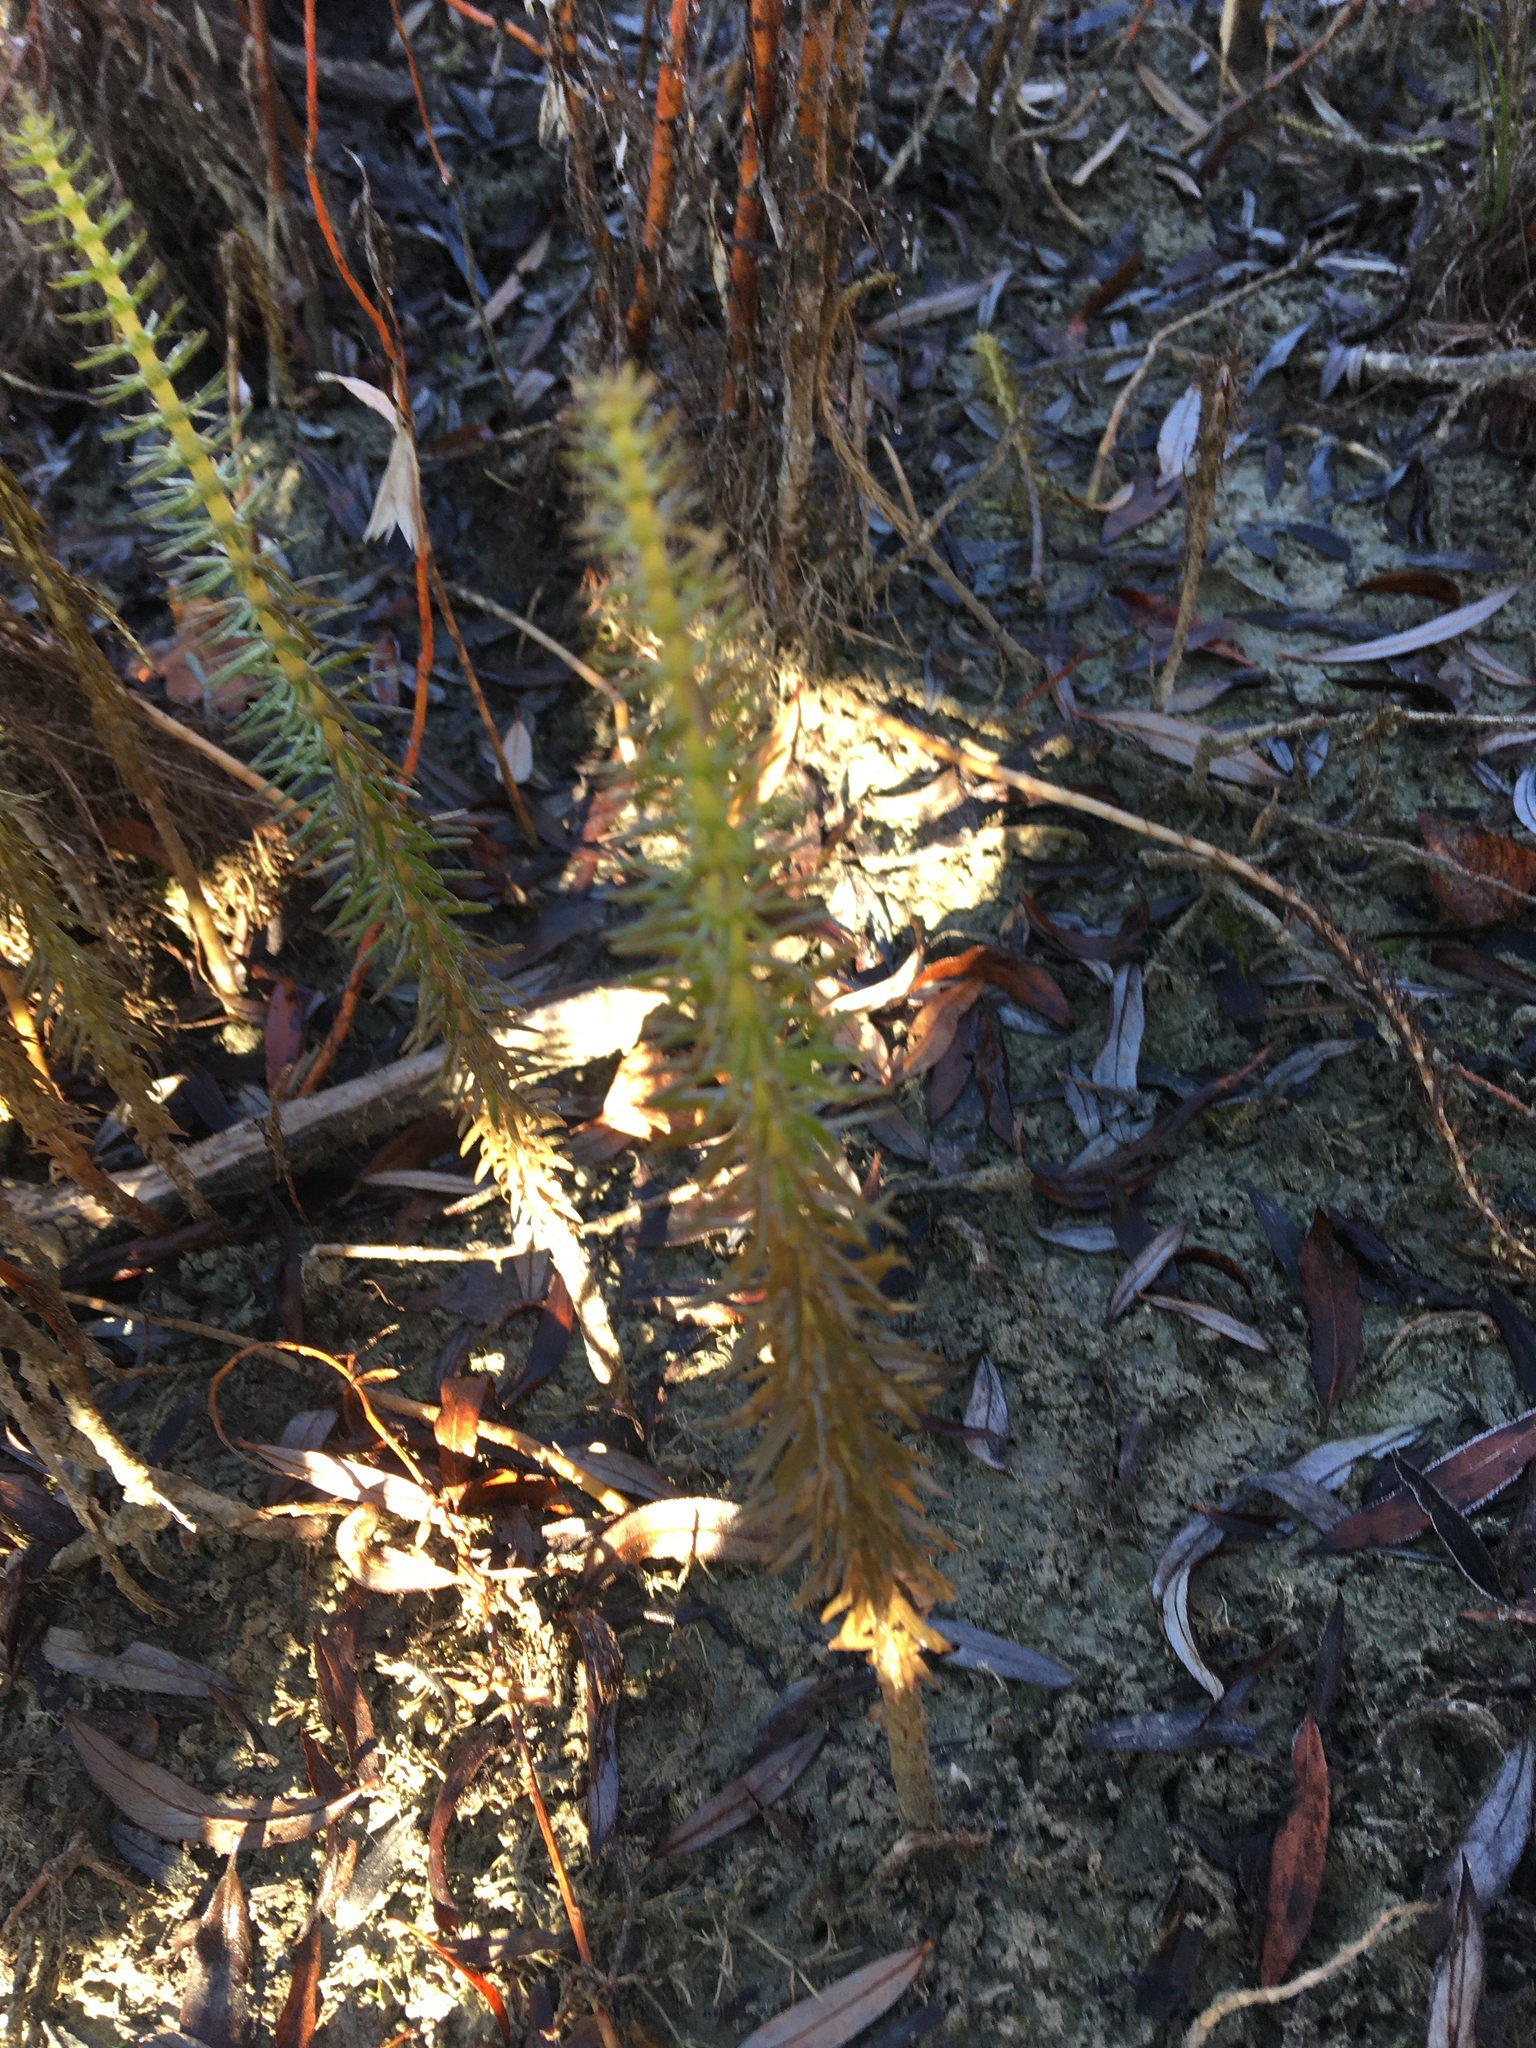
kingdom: Plantae
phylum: Tracheophyta
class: Magnoliopsida
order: Lamiales
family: Plantaginaceae
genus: Hippuris
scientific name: Hippuris vulgaris
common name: Mare's-tail
